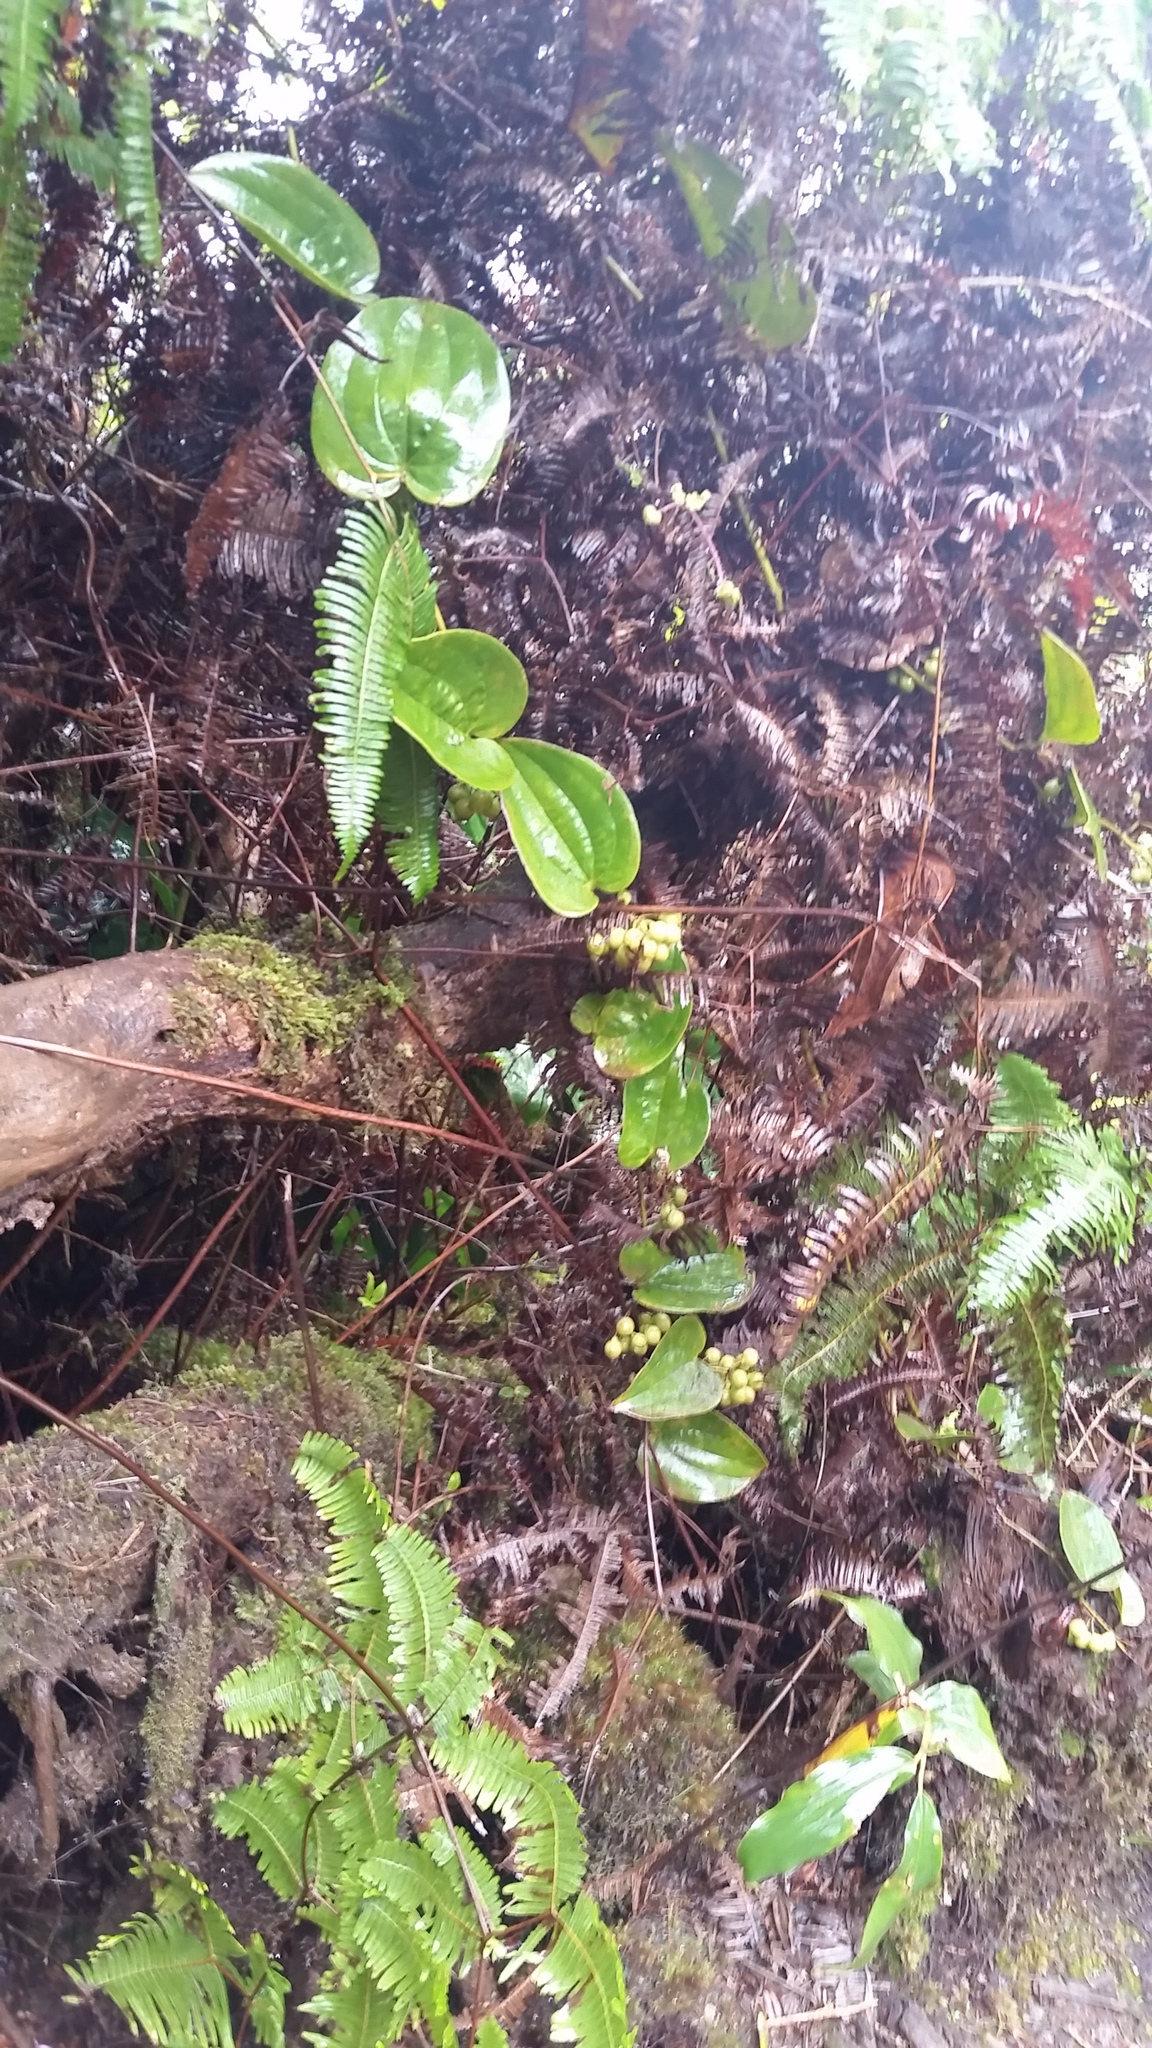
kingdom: Plantae
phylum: Tracheophyta
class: Liliopsida
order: Liliales
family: Smilacaceae
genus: Smilax
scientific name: Smilax melastomifolia
